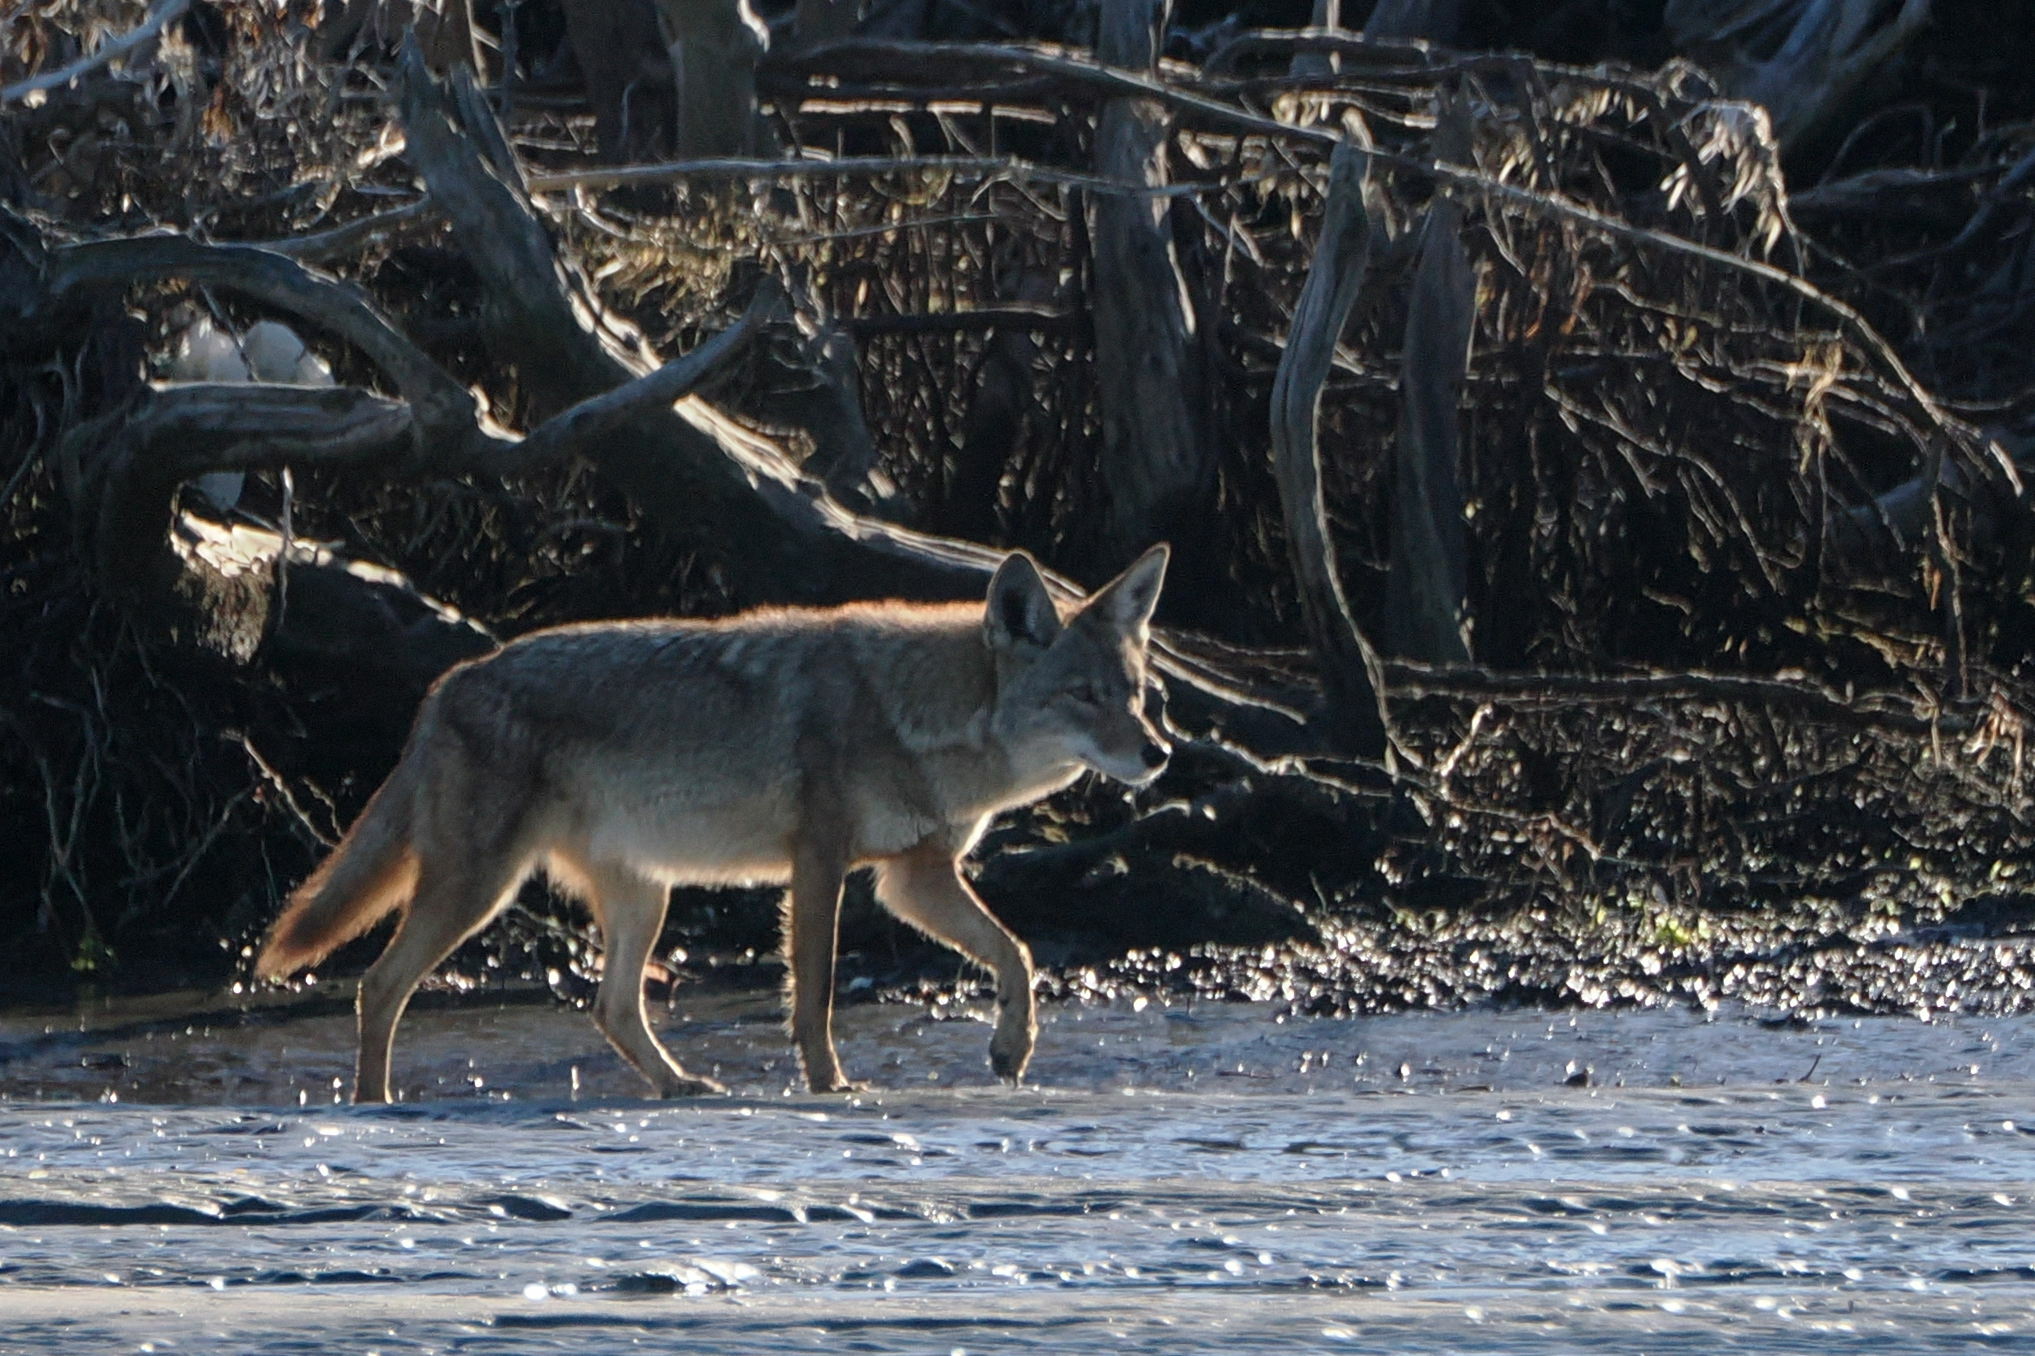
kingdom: Animalia
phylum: Chordata
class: Mammalia
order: Carnivora
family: Canidae
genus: Canis
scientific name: Canis latrans
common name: Coyote
